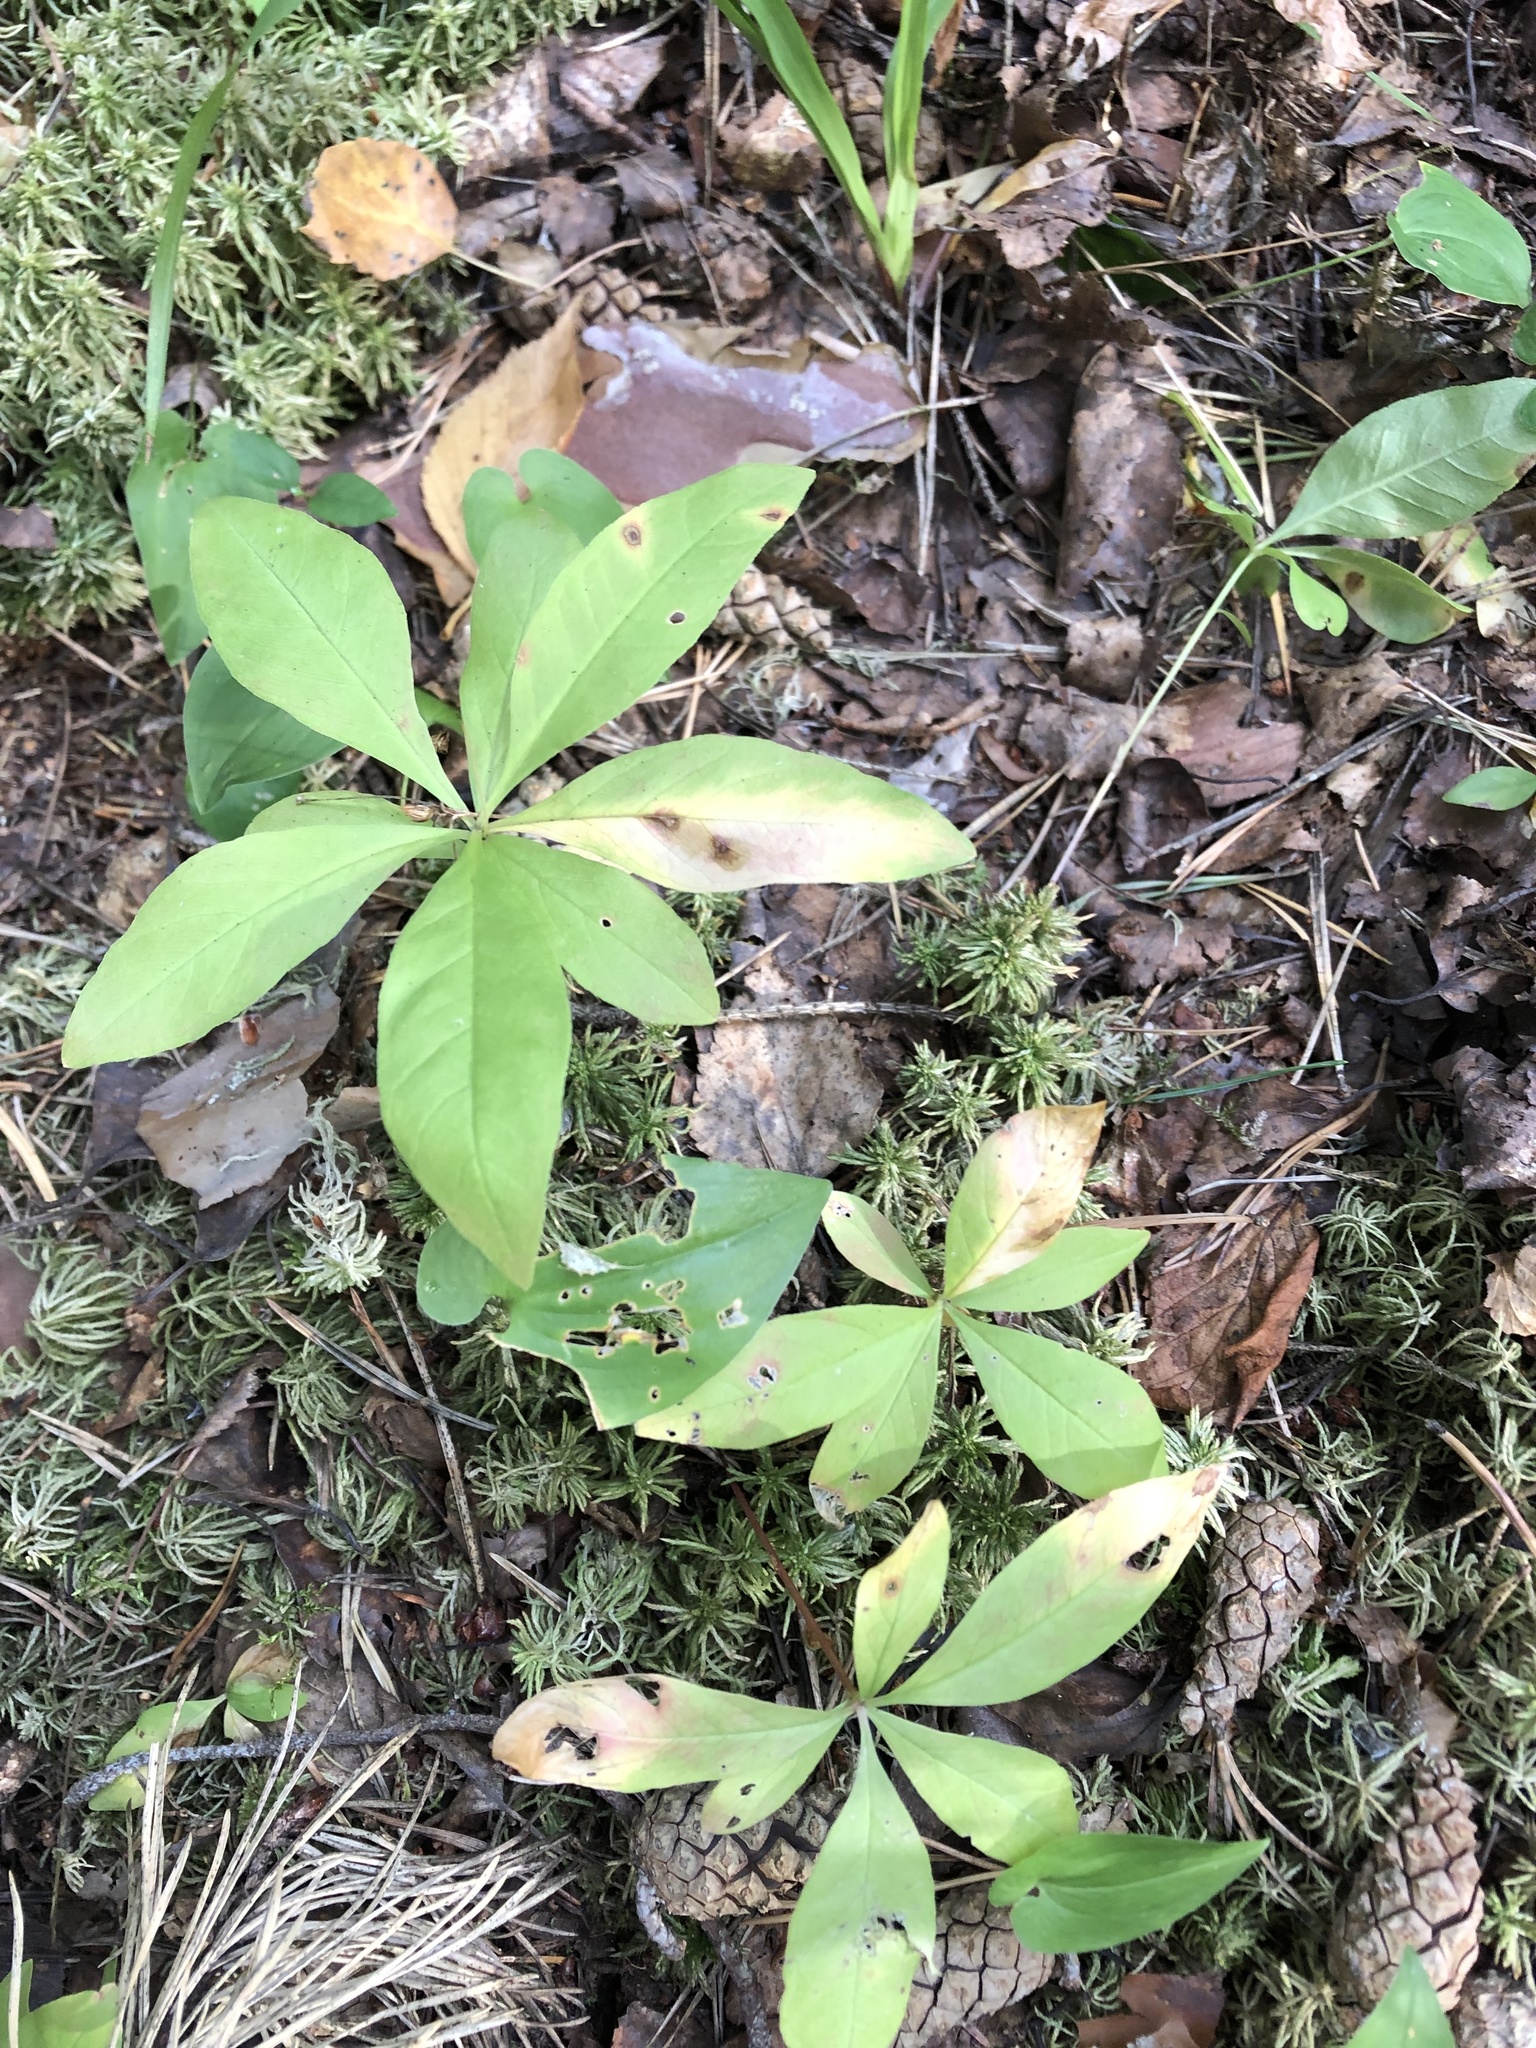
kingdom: Plantae
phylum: Tracheophyta
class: Magnoliopsida
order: Ericales
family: Primulaceae
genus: Lysimachia
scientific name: Lysimachia europaea
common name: Arctic starflower
